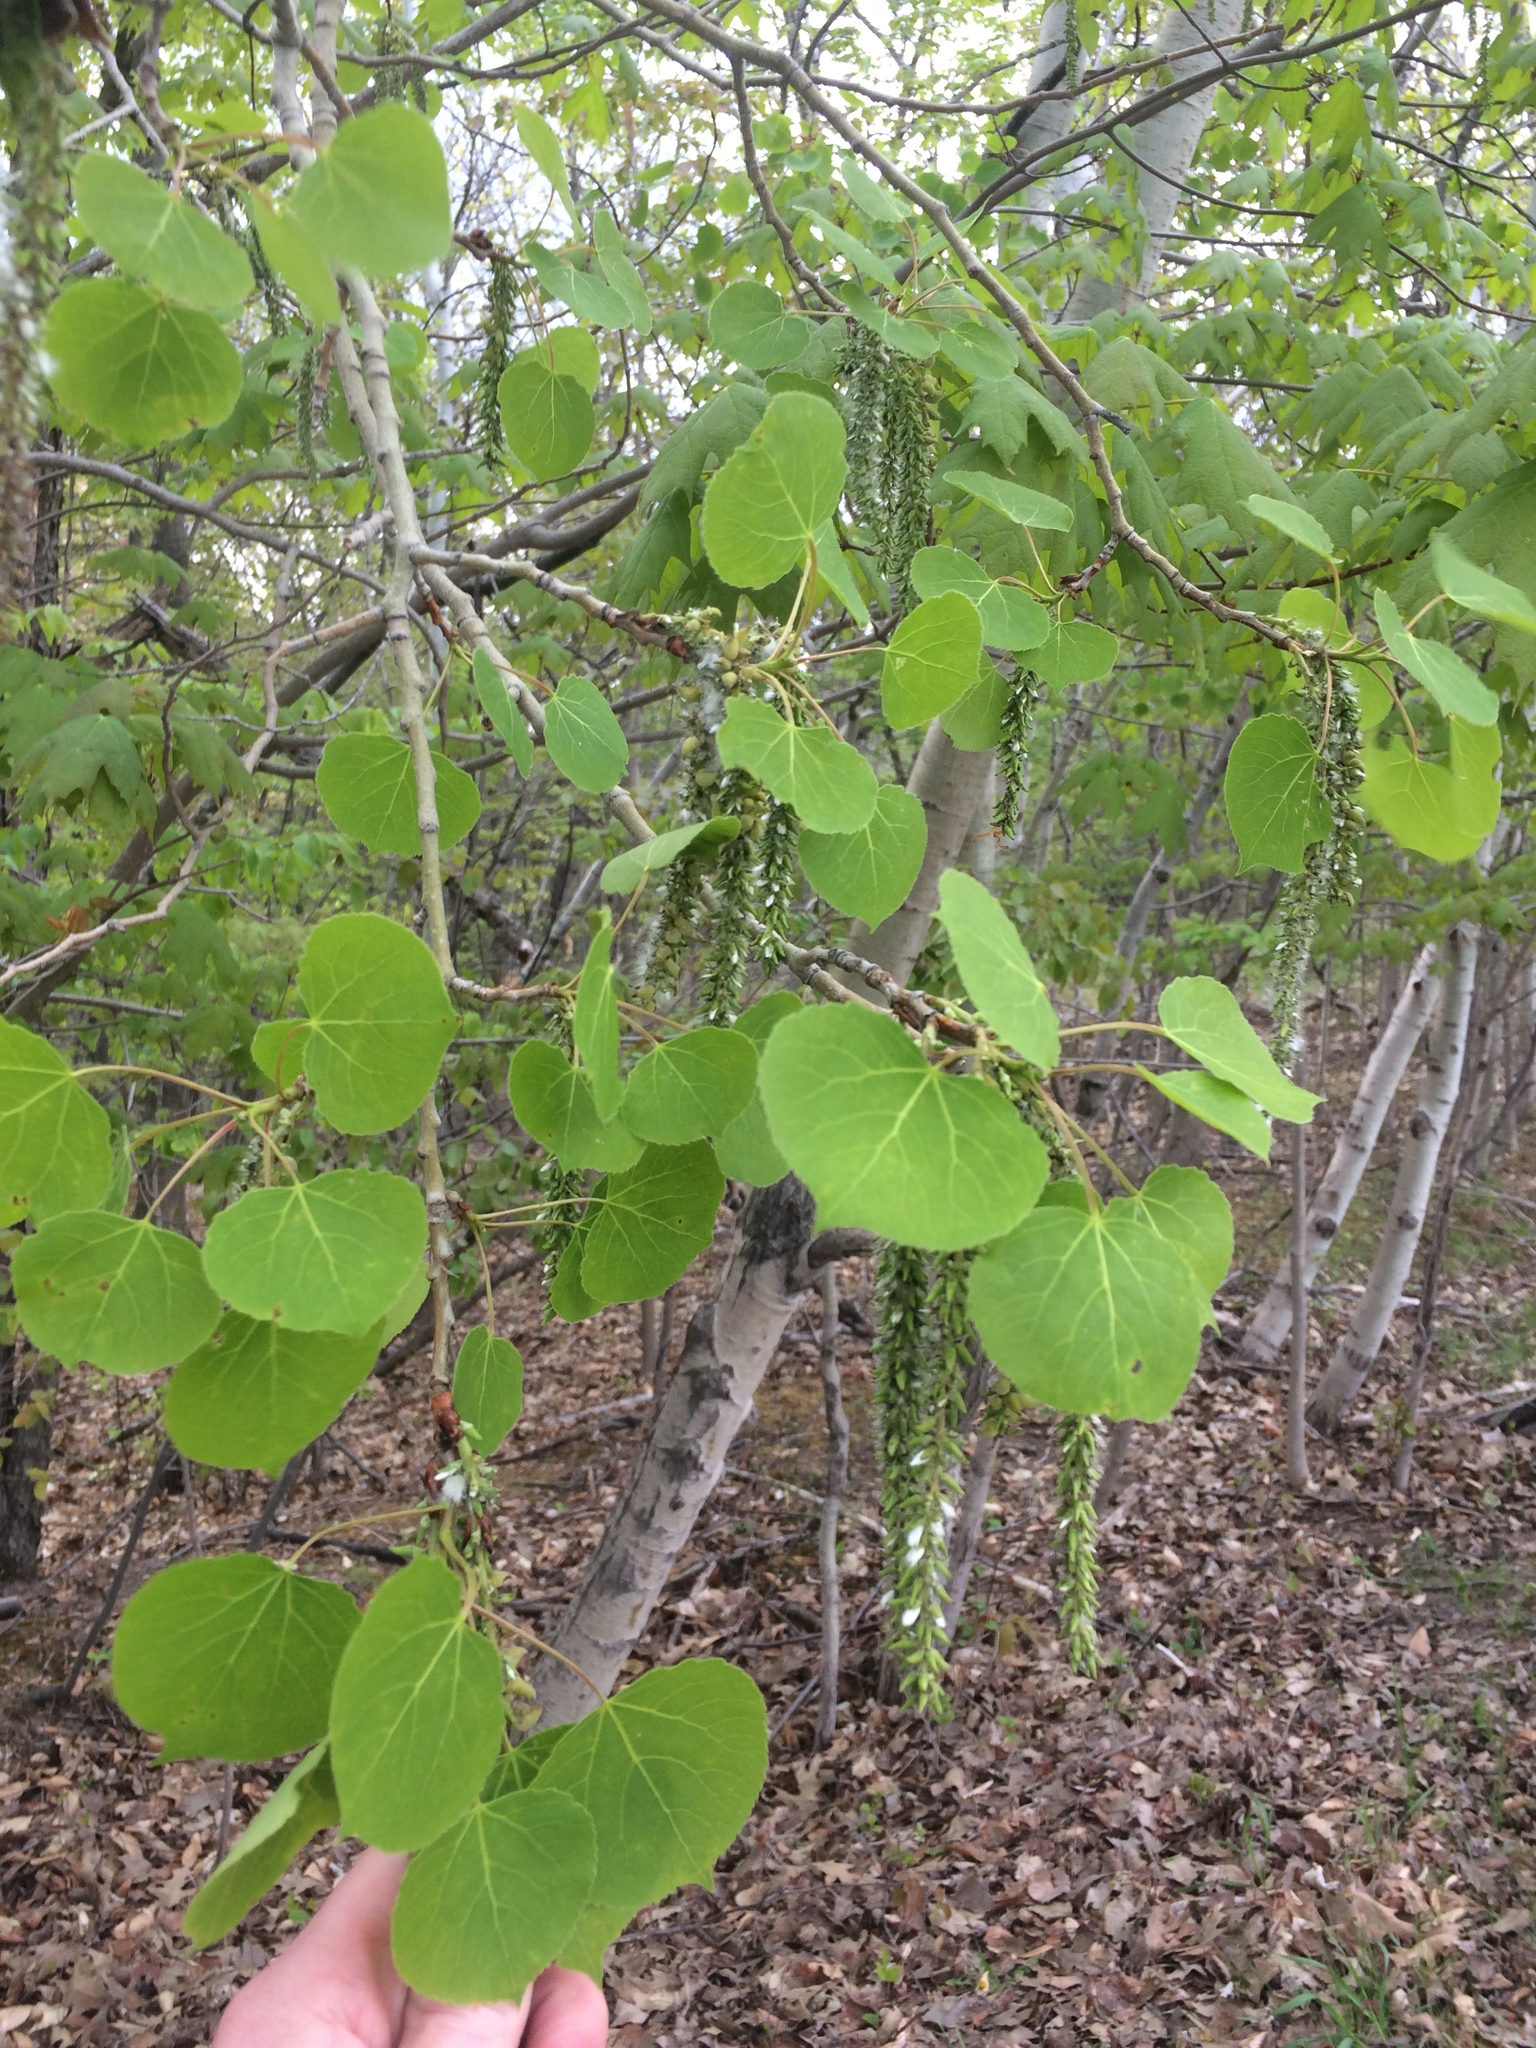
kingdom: Plantae
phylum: Tracheophyta
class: Magnoliopsida
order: Malpighiales
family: Salicaceae
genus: Populus
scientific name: Populus tremuloides
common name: Quaking aspen
